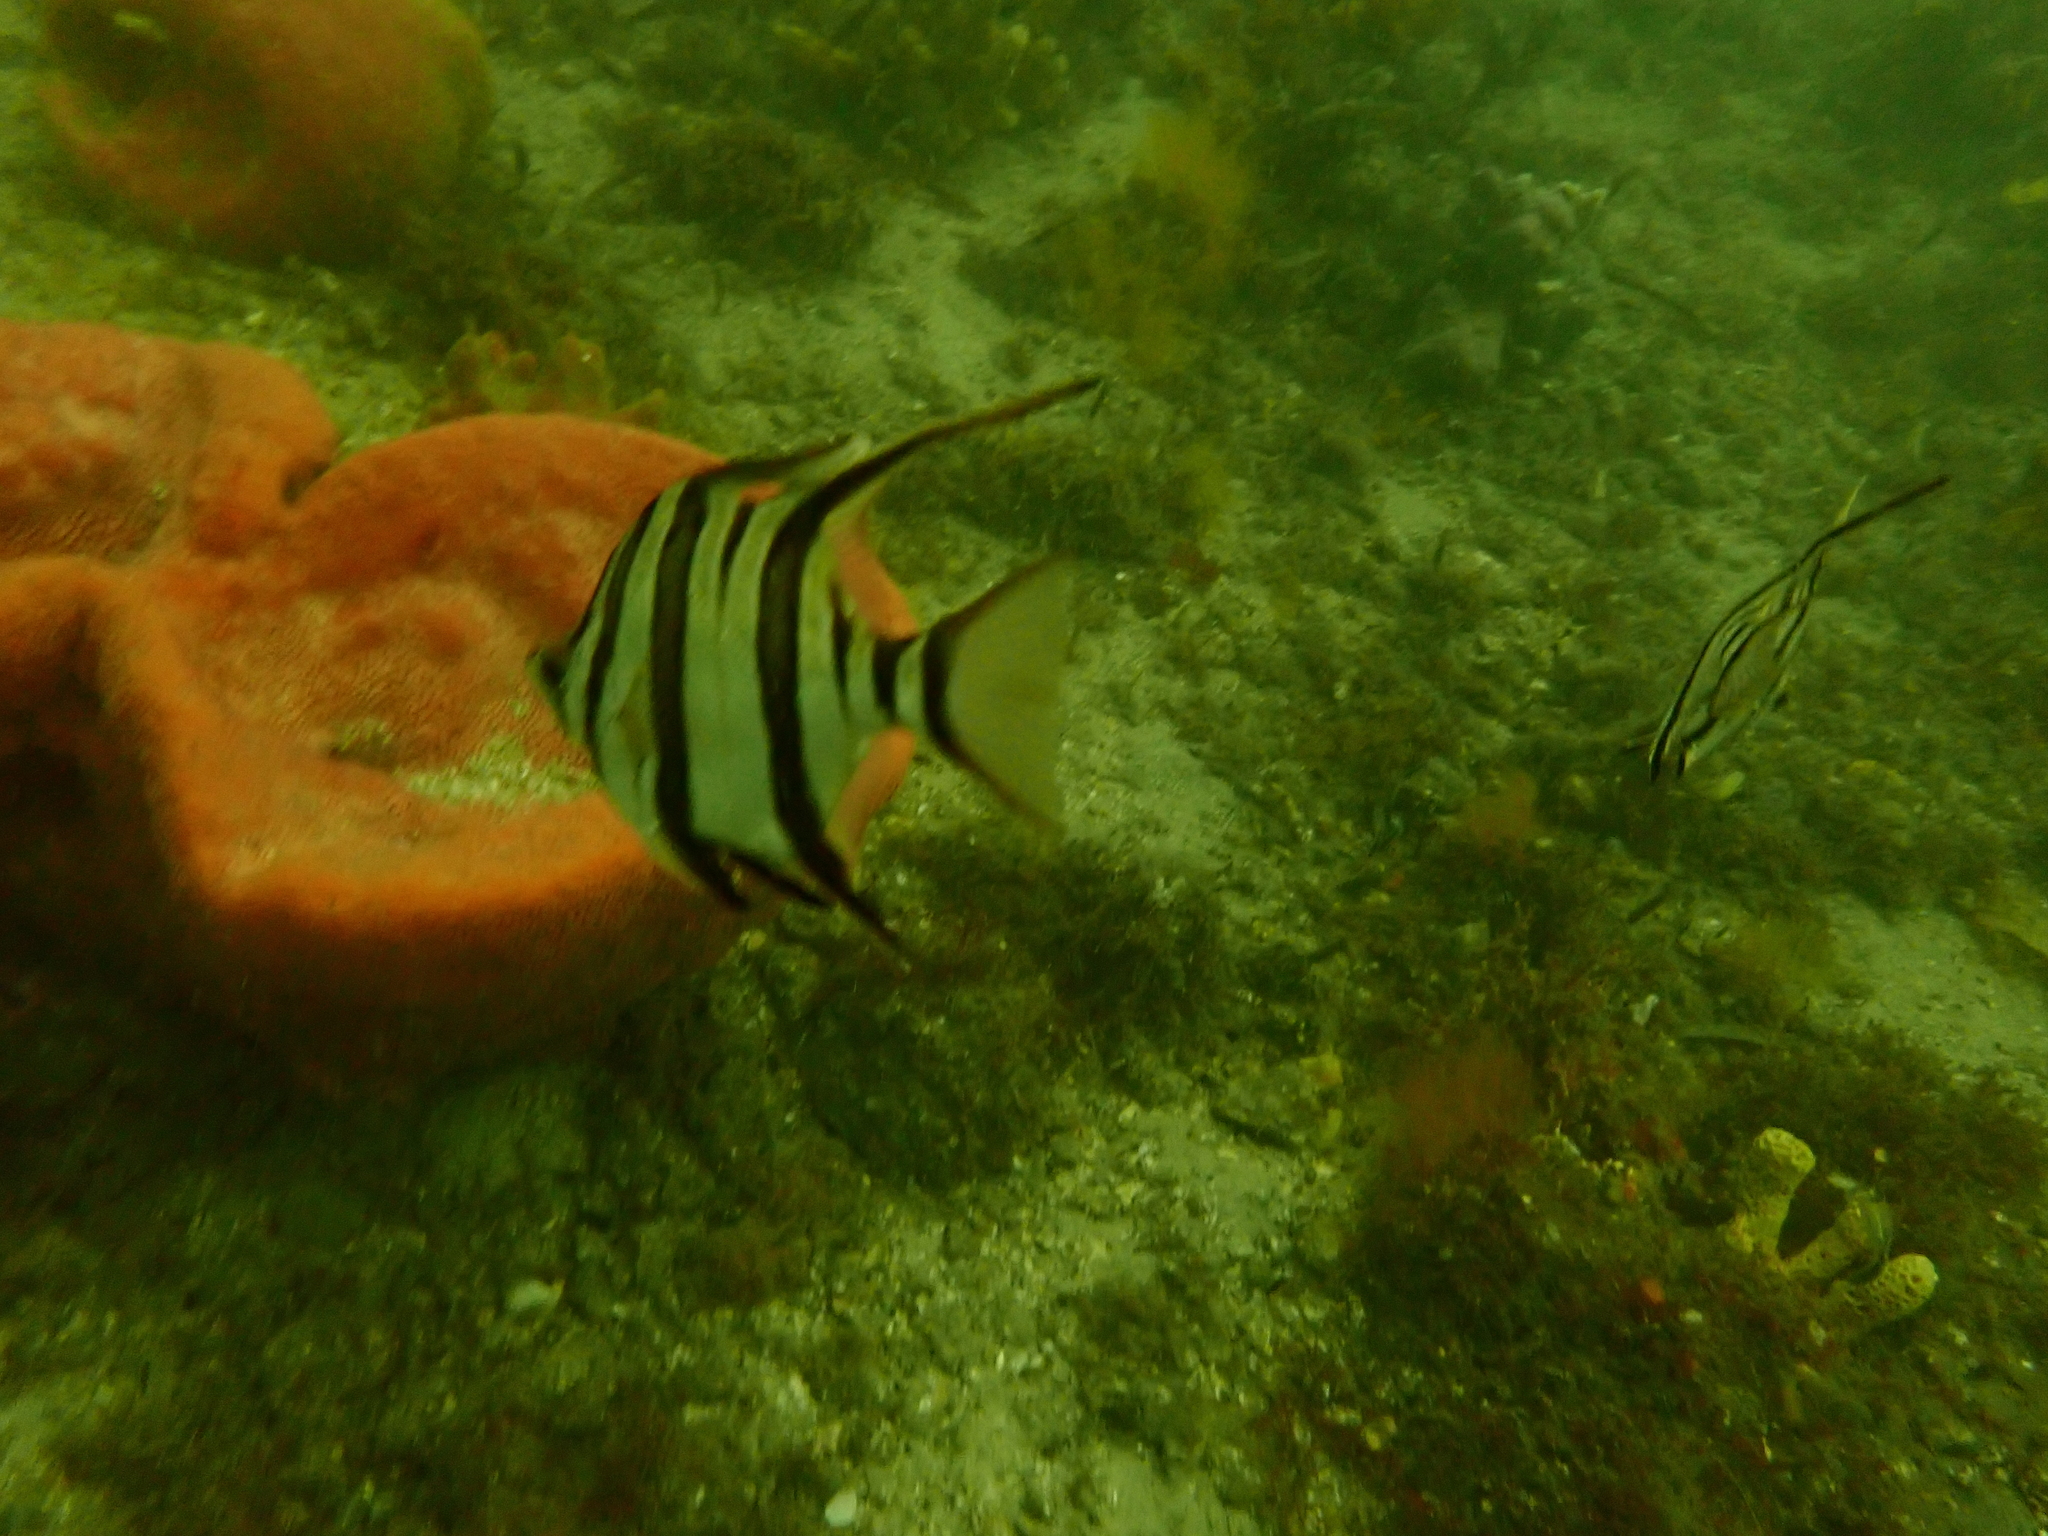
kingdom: Animalia
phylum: Chordata
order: Perciformes
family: Enoplosidae
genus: Enoplosus
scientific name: Enoplosus armatus
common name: Old wife
